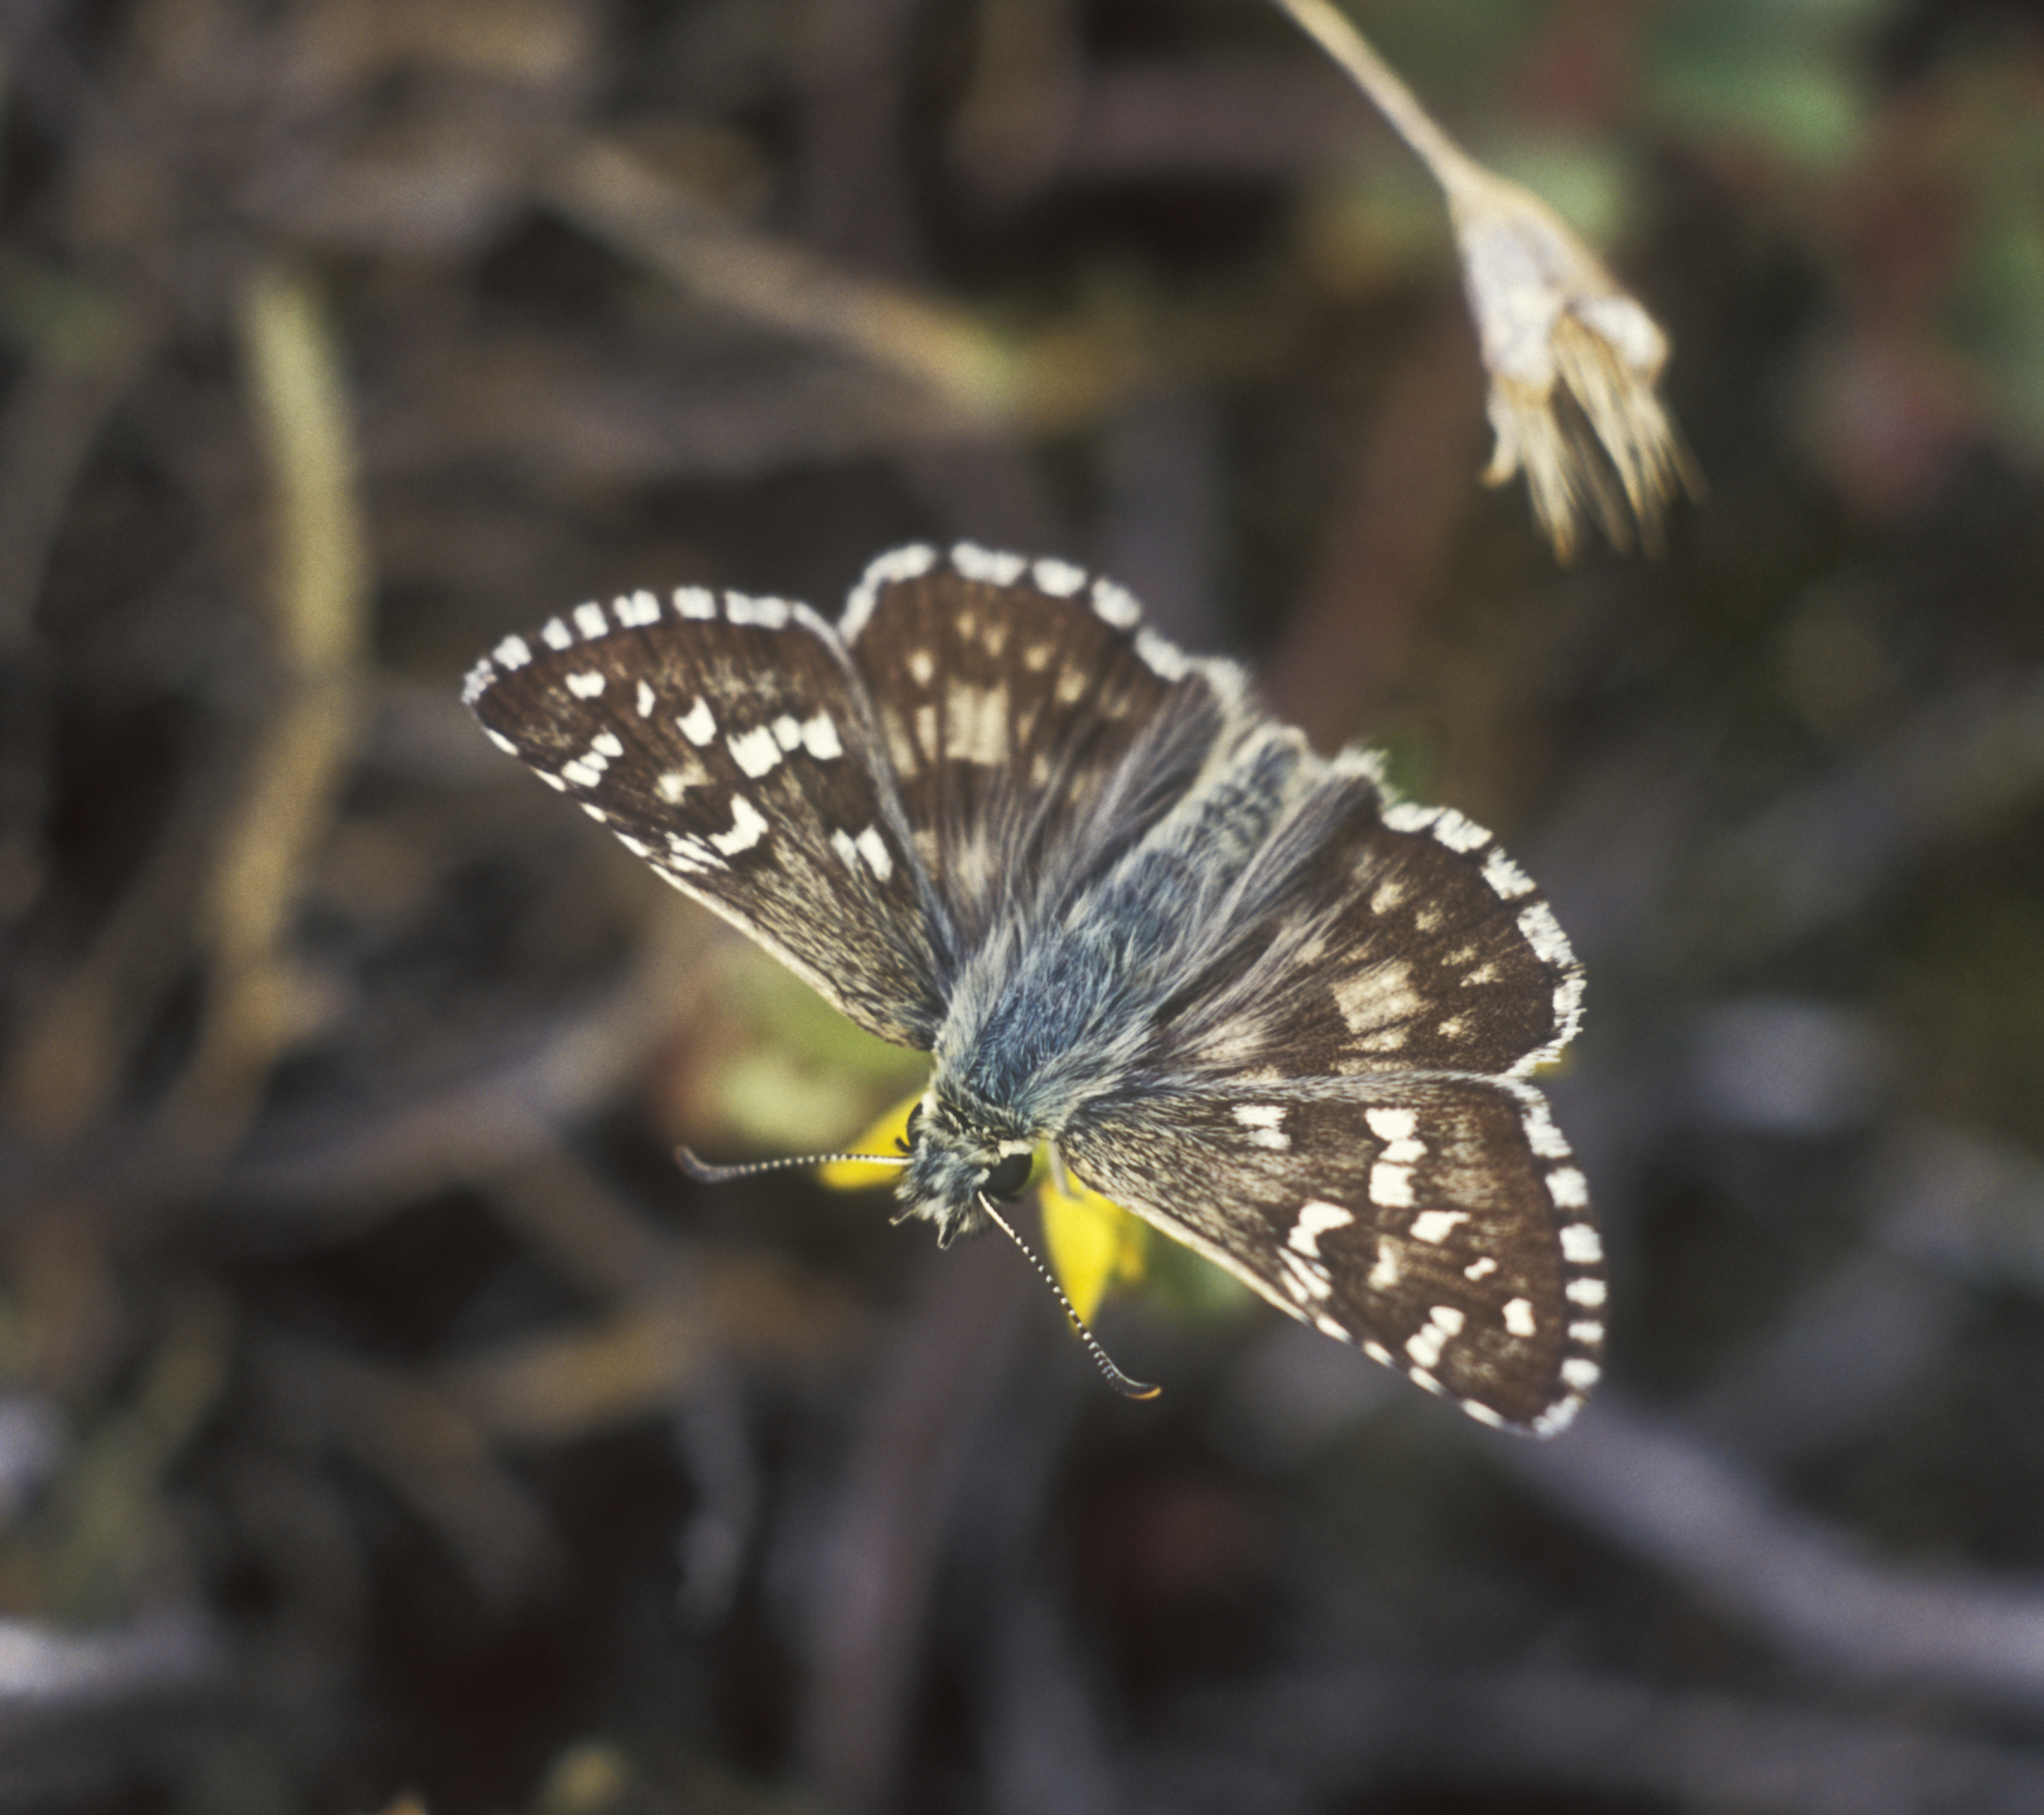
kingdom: Animalia
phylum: Arthropoda
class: Insecta
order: Lepidoptera
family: Hesperiidae
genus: Pyrgus
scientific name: Pyrgus alveus
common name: Large grizzled skipper
